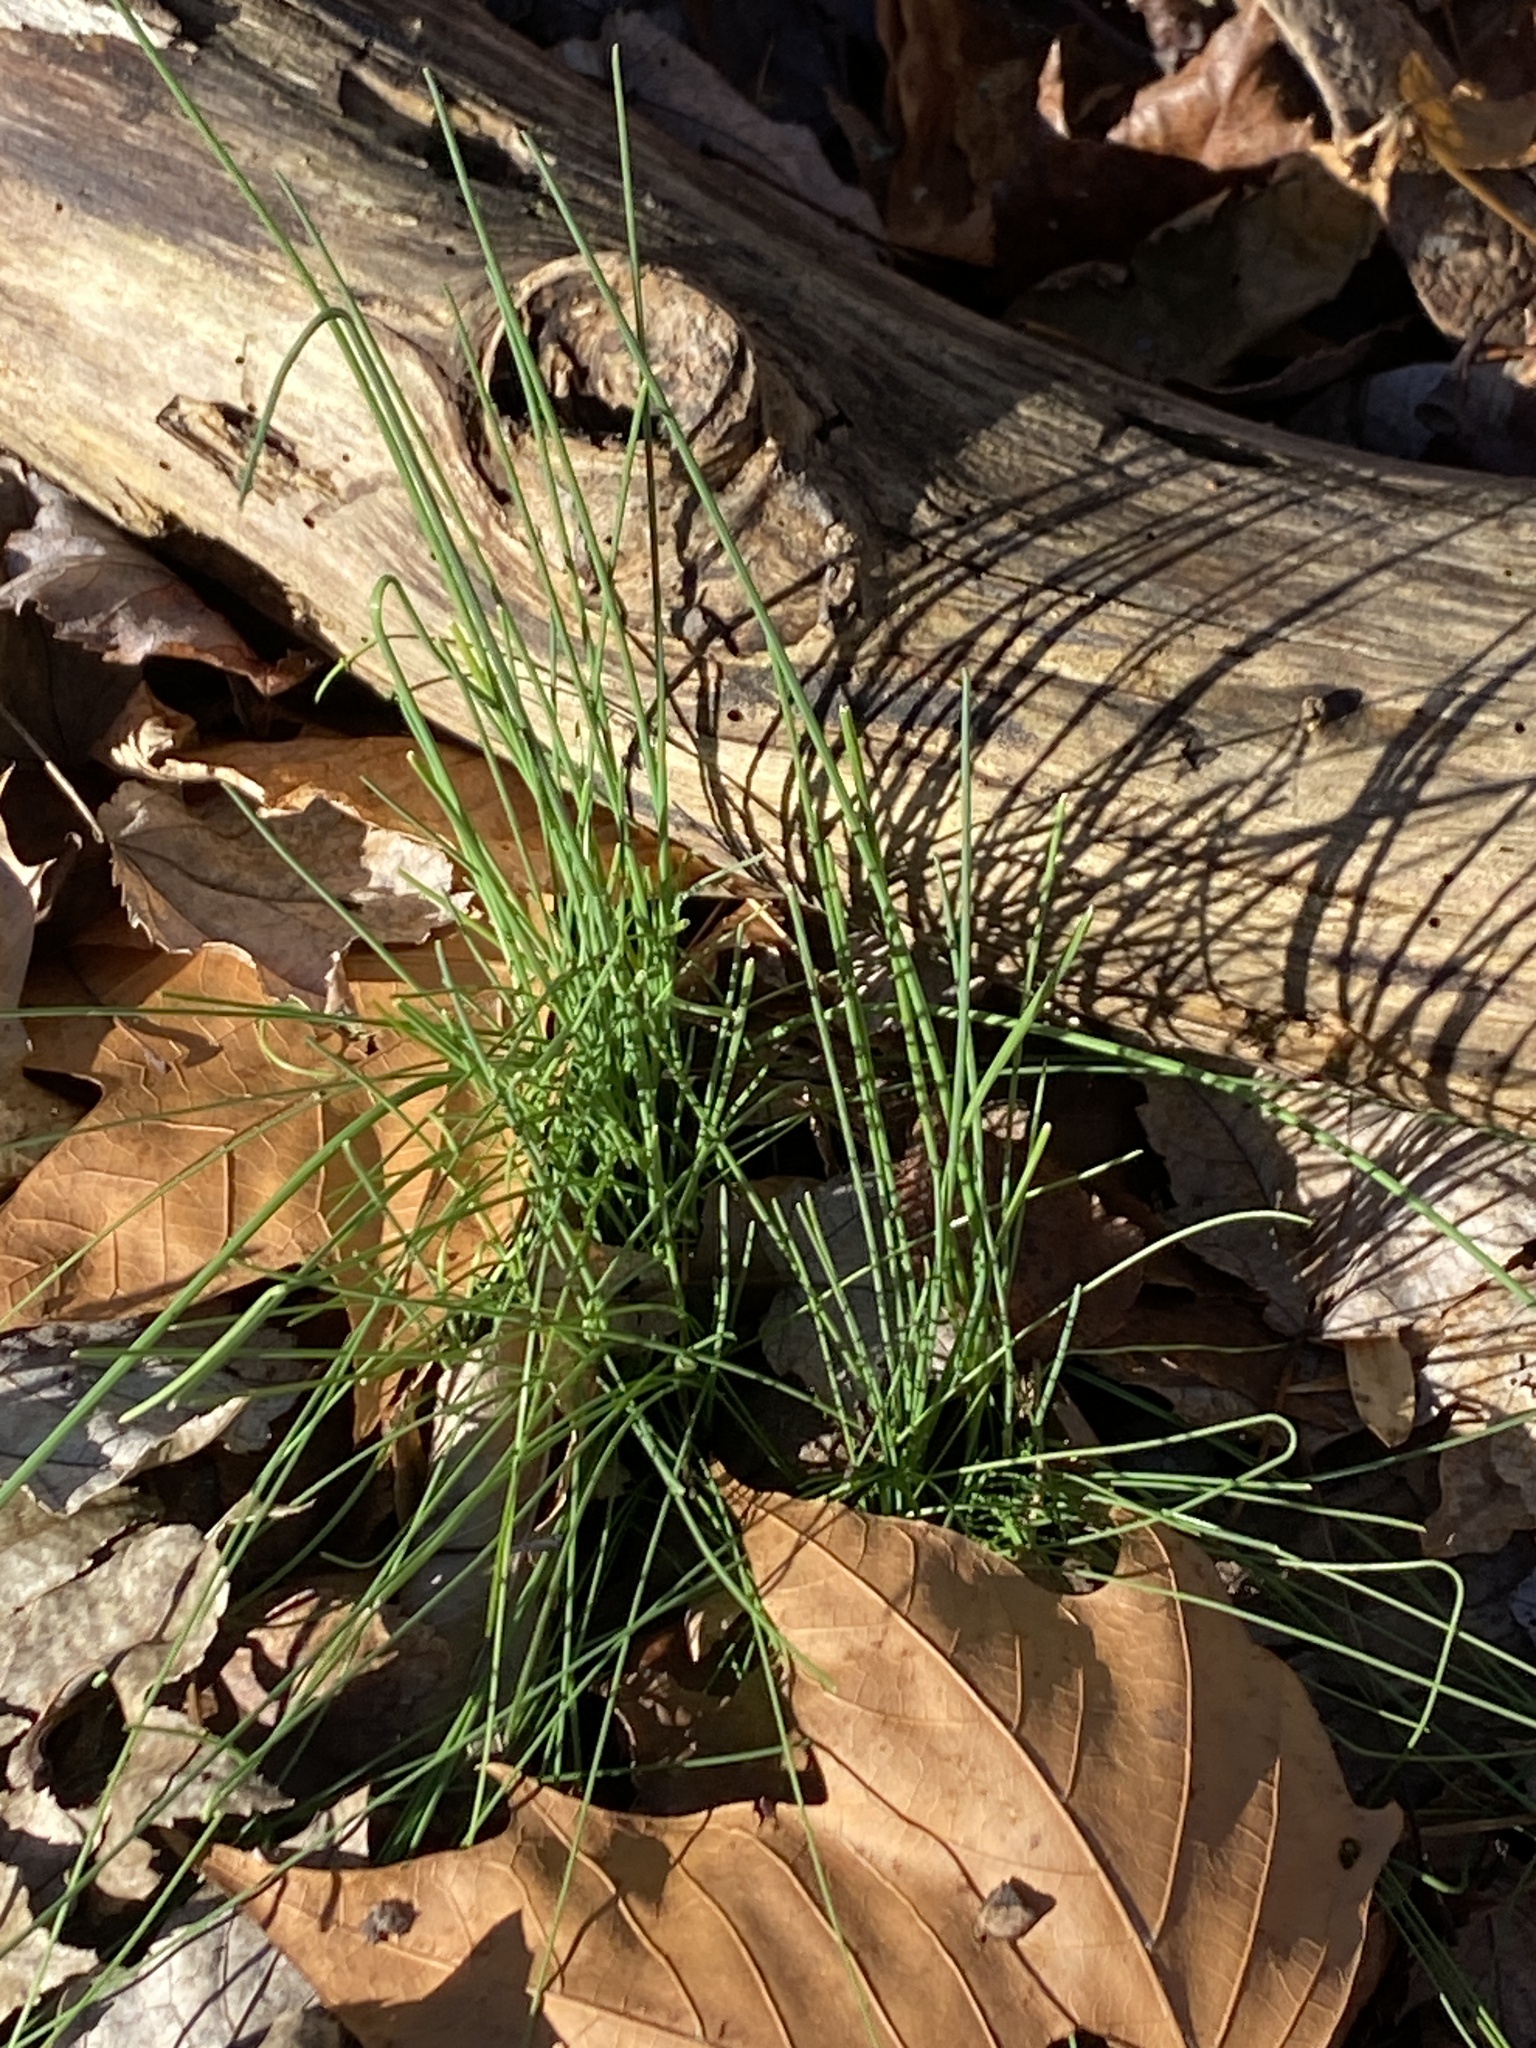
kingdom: Plantae
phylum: Tracheophyta
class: Liliopsida
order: Asparagales
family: Amaryllidaceae
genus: Allium
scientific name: Allium vineale
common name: Crow garlic
